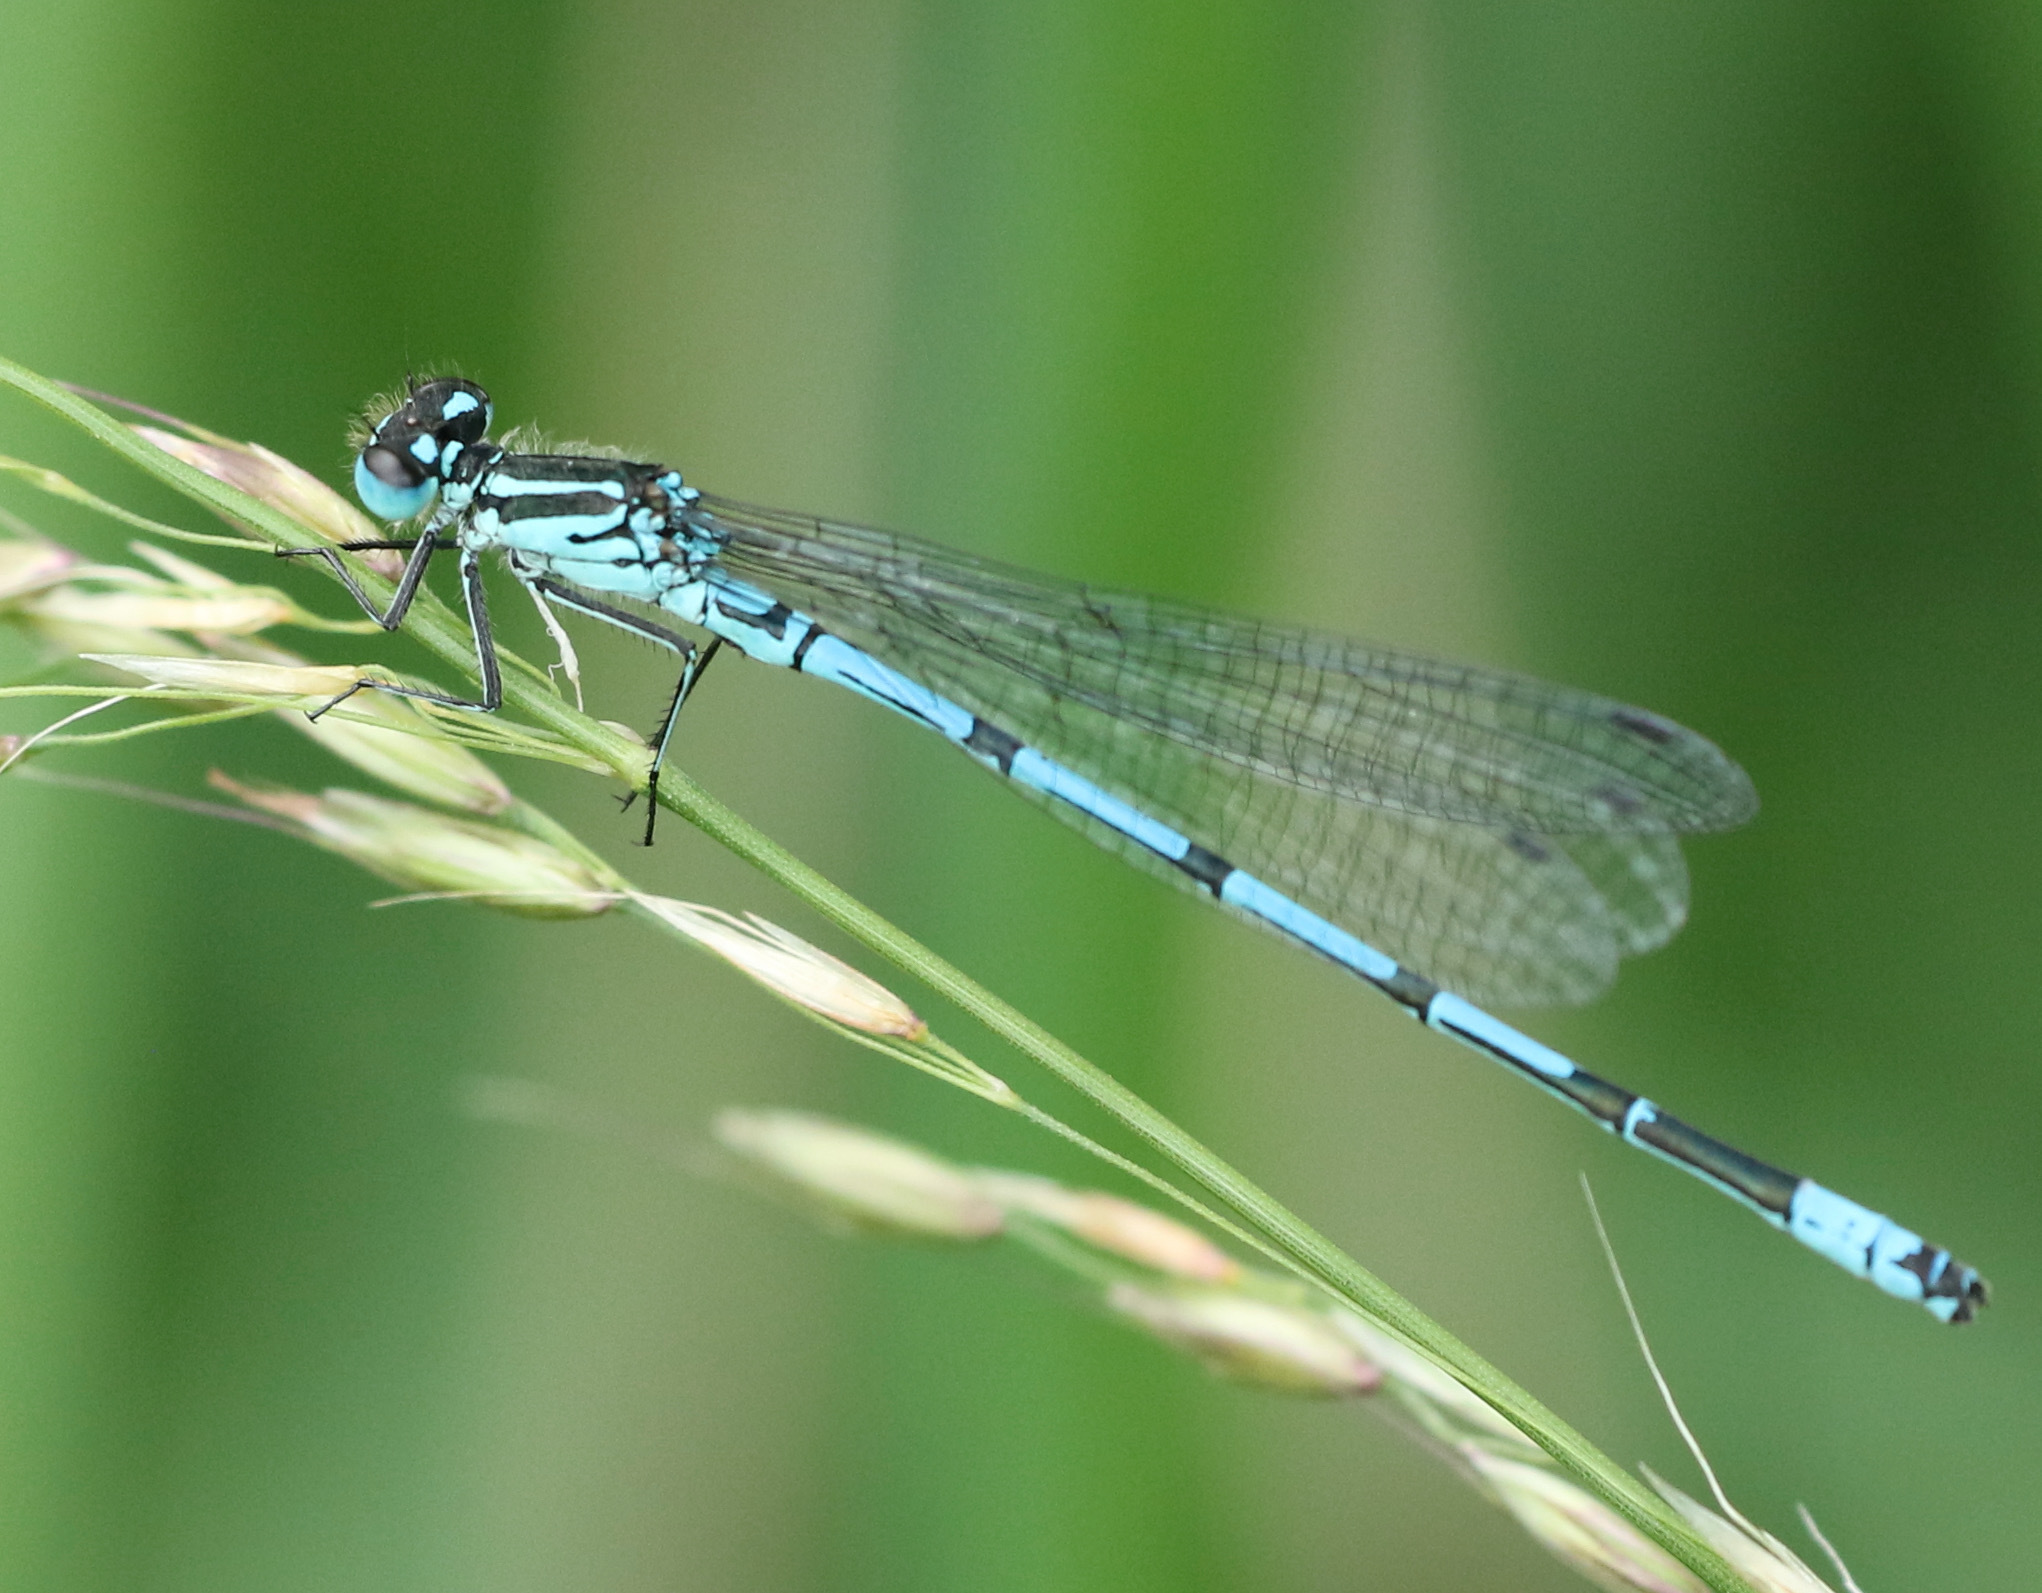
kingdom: Animalia
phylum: Arthropoda
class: Insecta
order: Odonata
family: Coenagrionidae
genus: Coenagrion
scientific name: Coenagrion puella
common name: Azure damselfly
